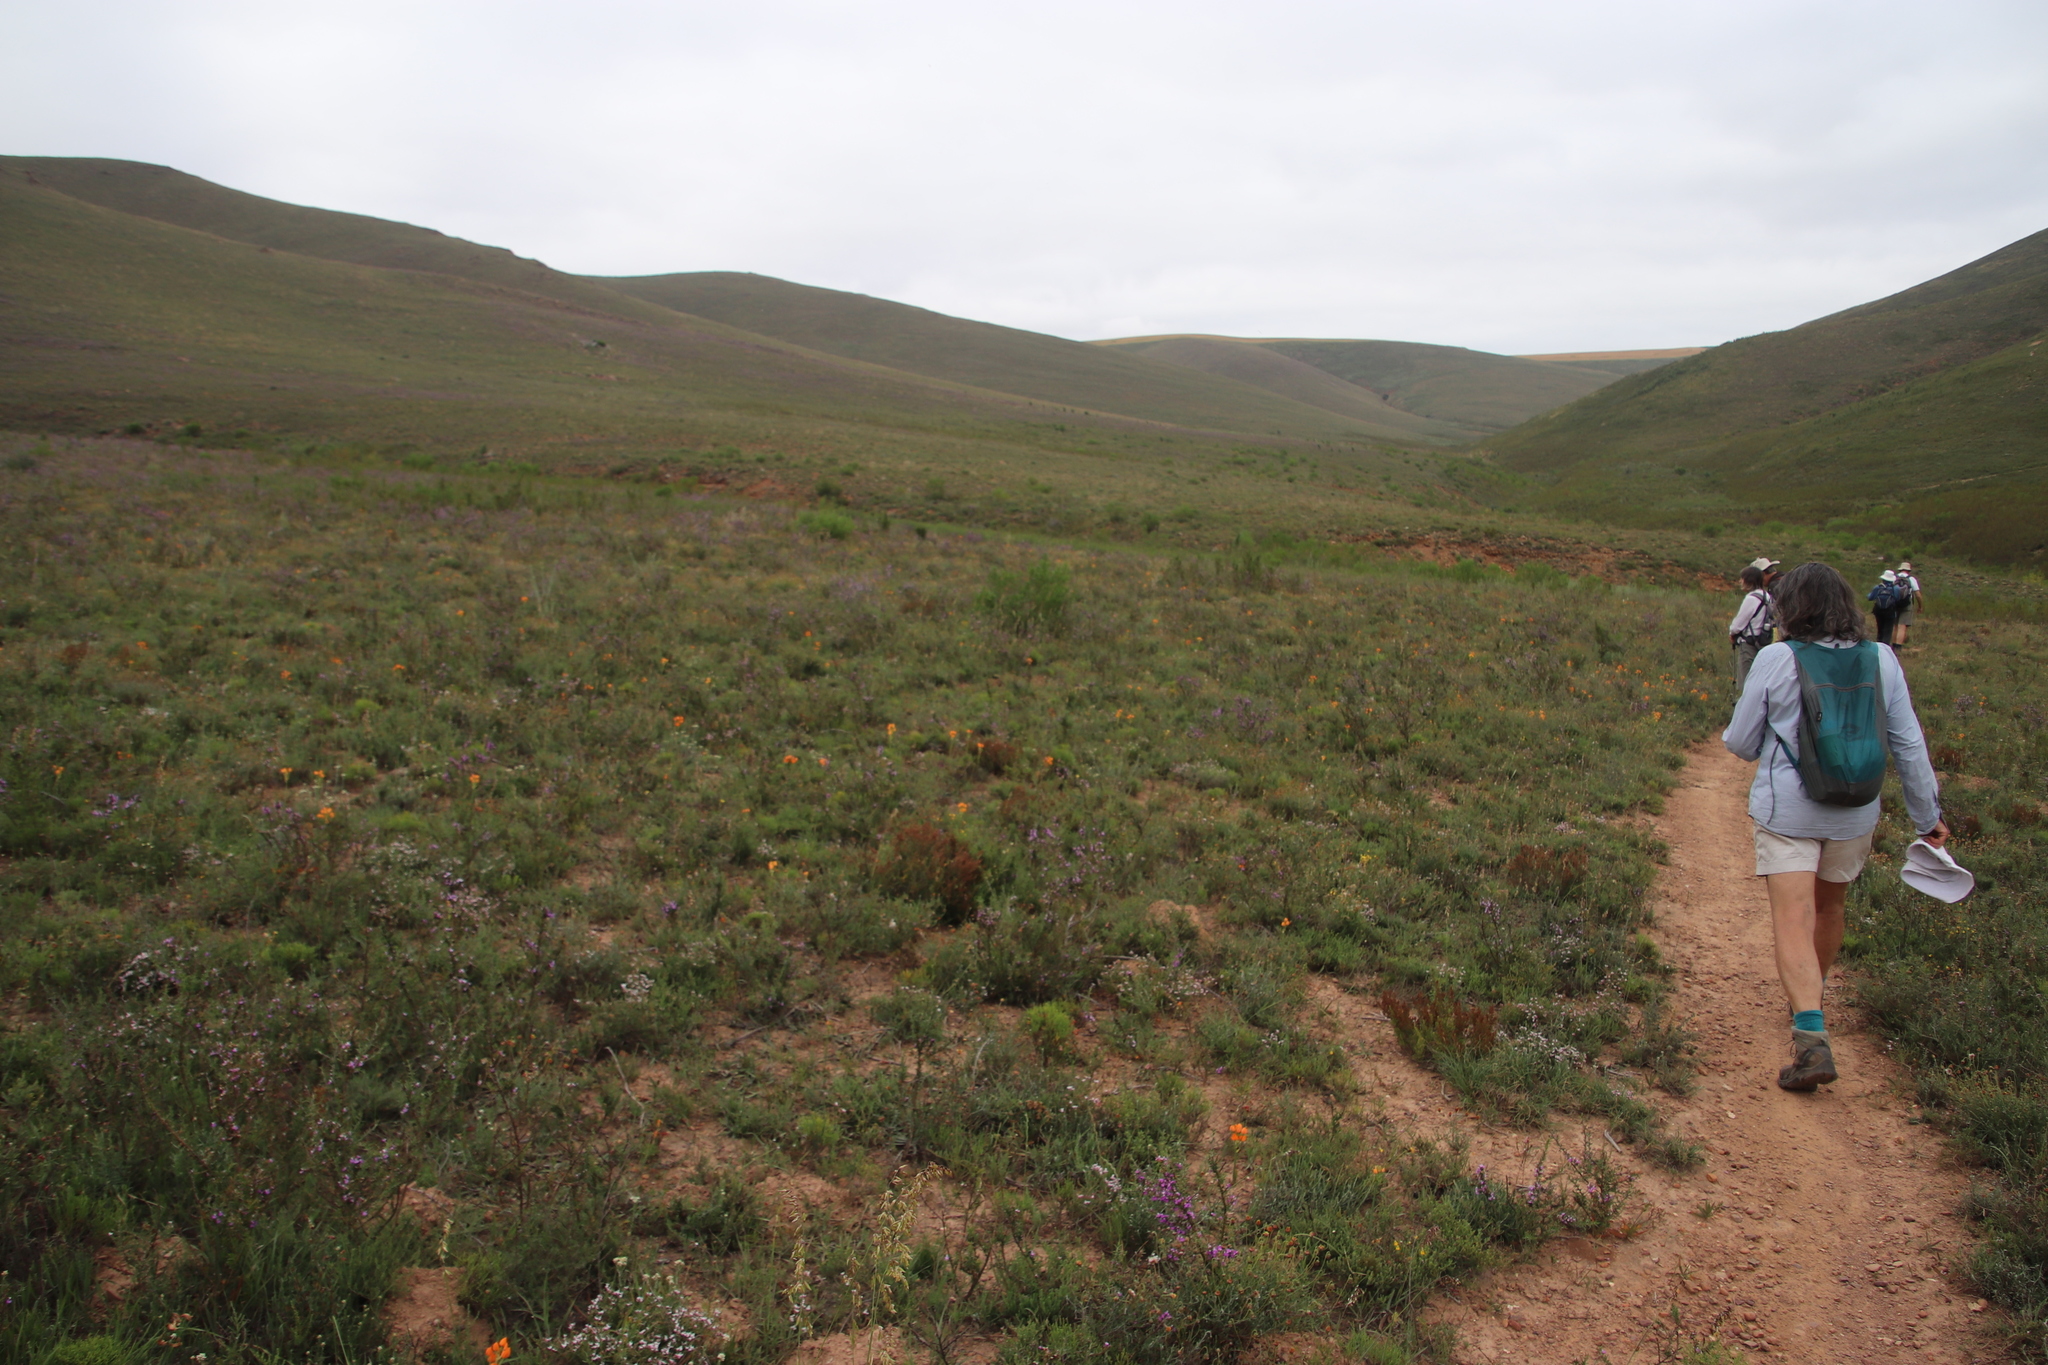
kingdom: Plantae
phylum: Tracheophyta
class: Liliopsida
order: Asparagales
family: Asparagaceae
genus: Ornithogalum
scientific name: Ornithogalum dubium
